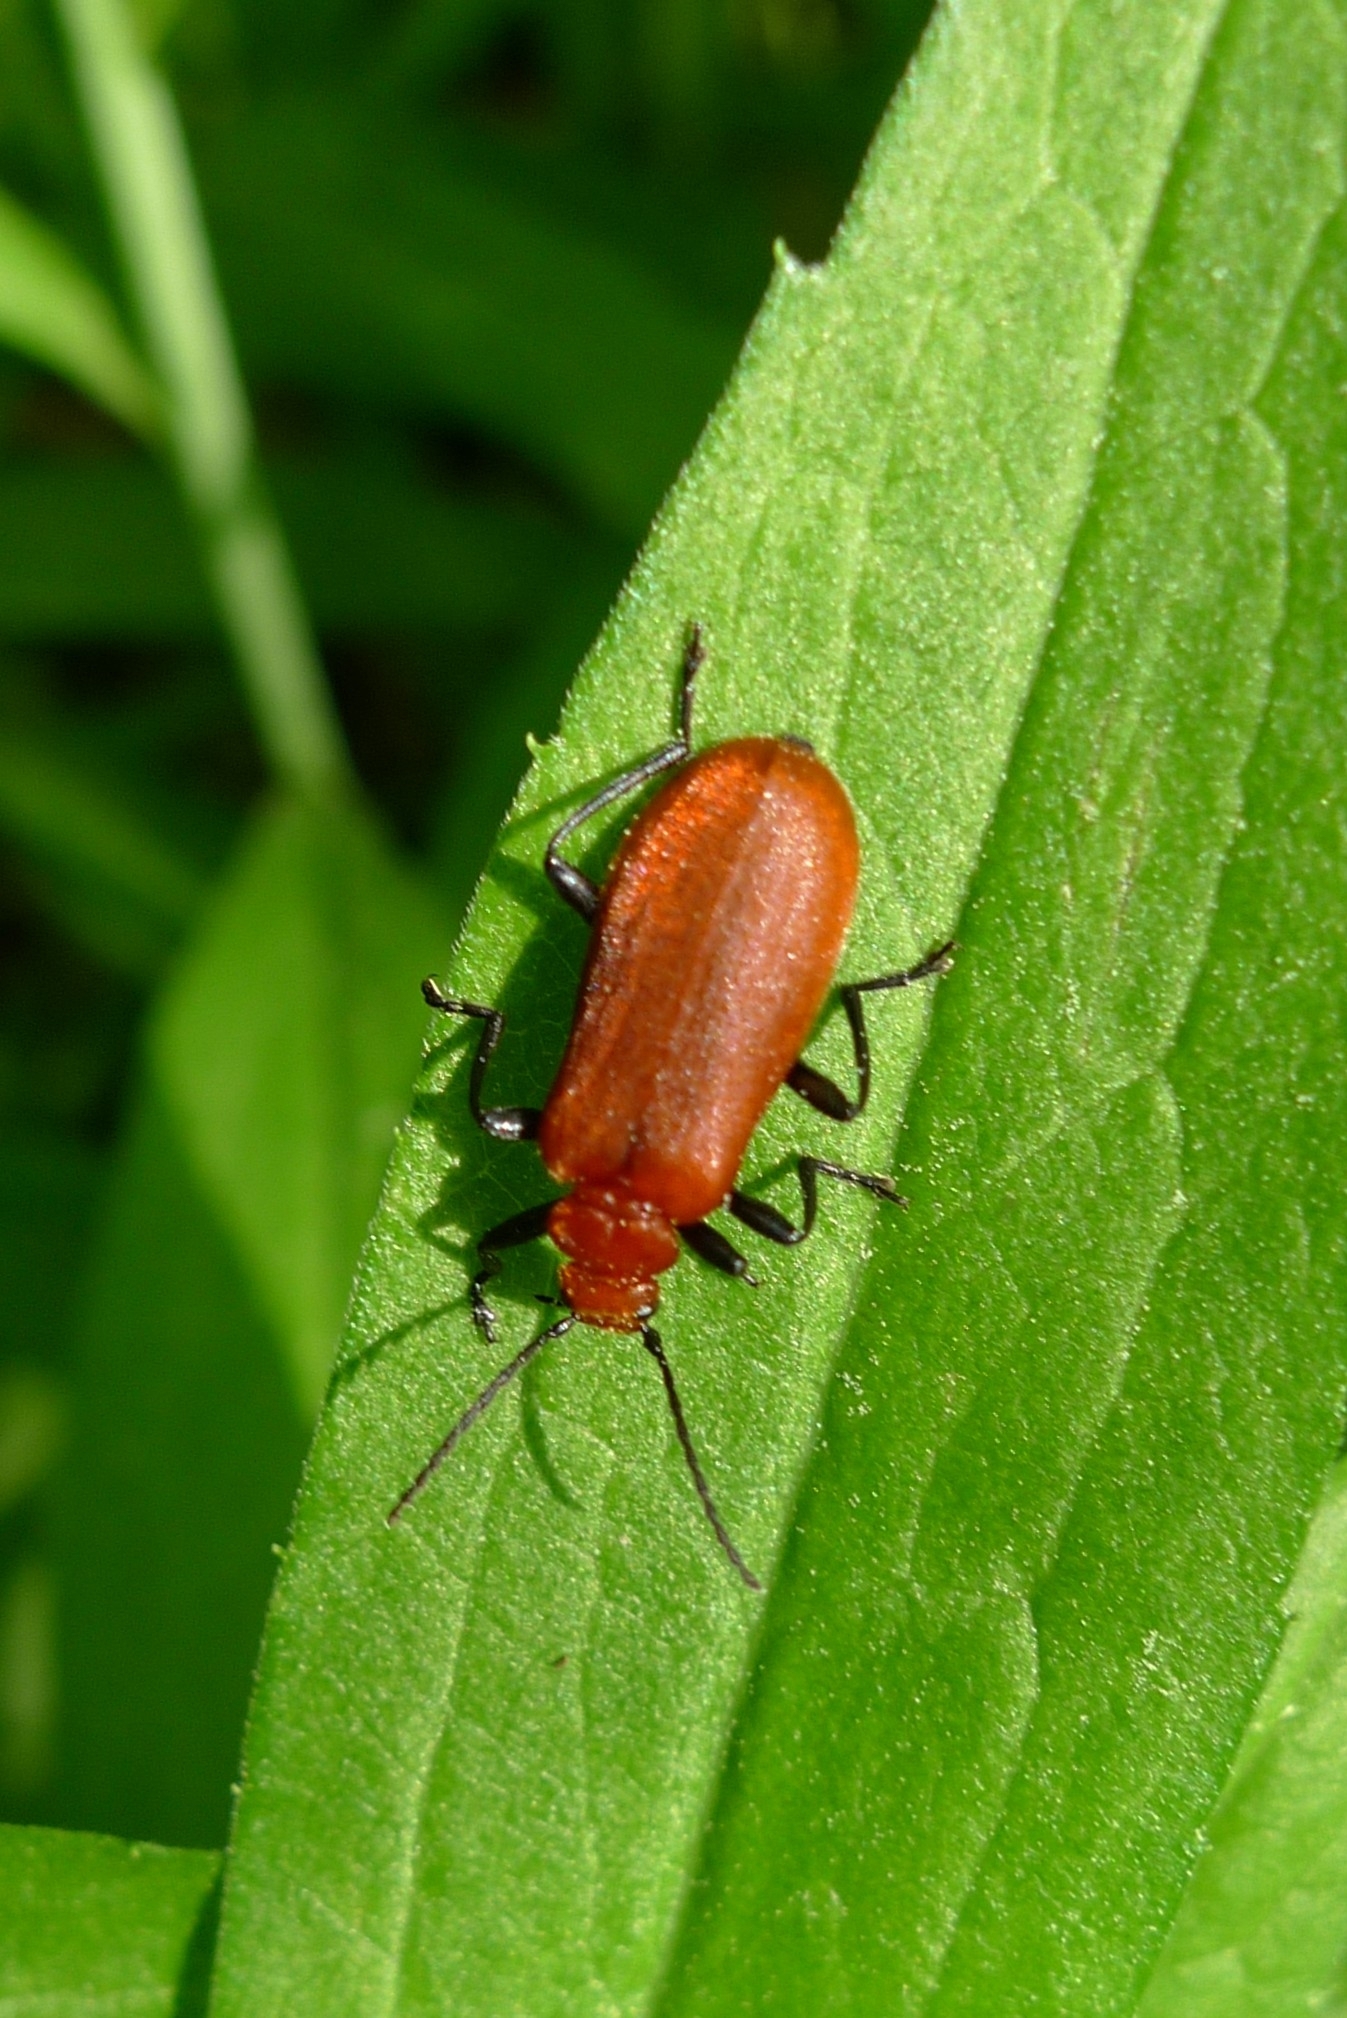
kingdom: Animalia
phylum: Arthropoda
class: Insecta
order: Coleoptera
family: Pyrochroidae
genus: Pyrochroa
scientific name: Pyrochroa serraticornis
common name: Red-headed cardinal beetle
